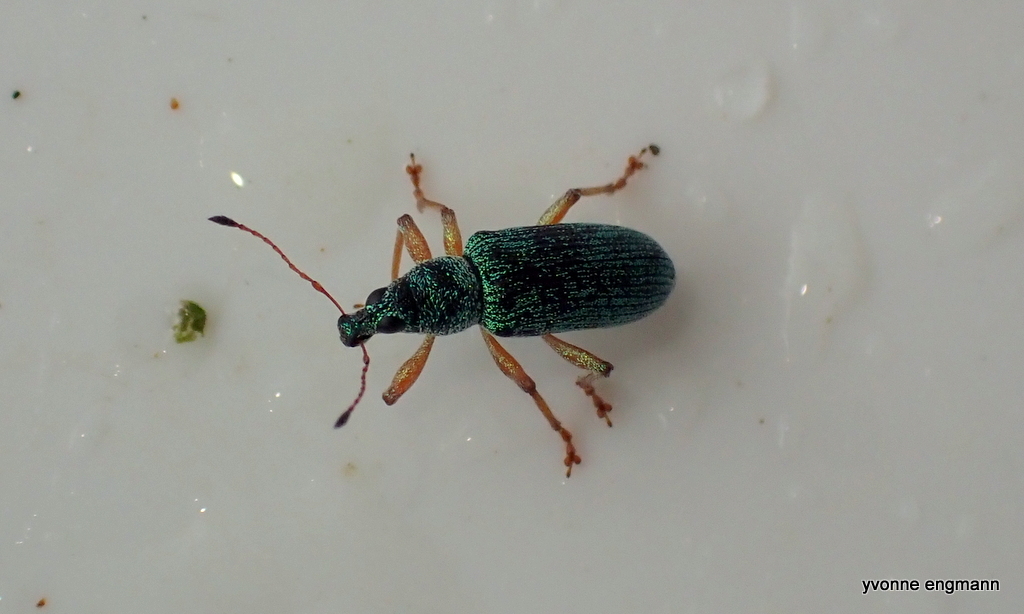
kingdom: Animalia
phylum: Arthropoda
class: Insecta
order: Coleoptera
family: Curculionidae
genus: Polydrusus
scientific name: Polydrusus formosus
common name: Weevil
